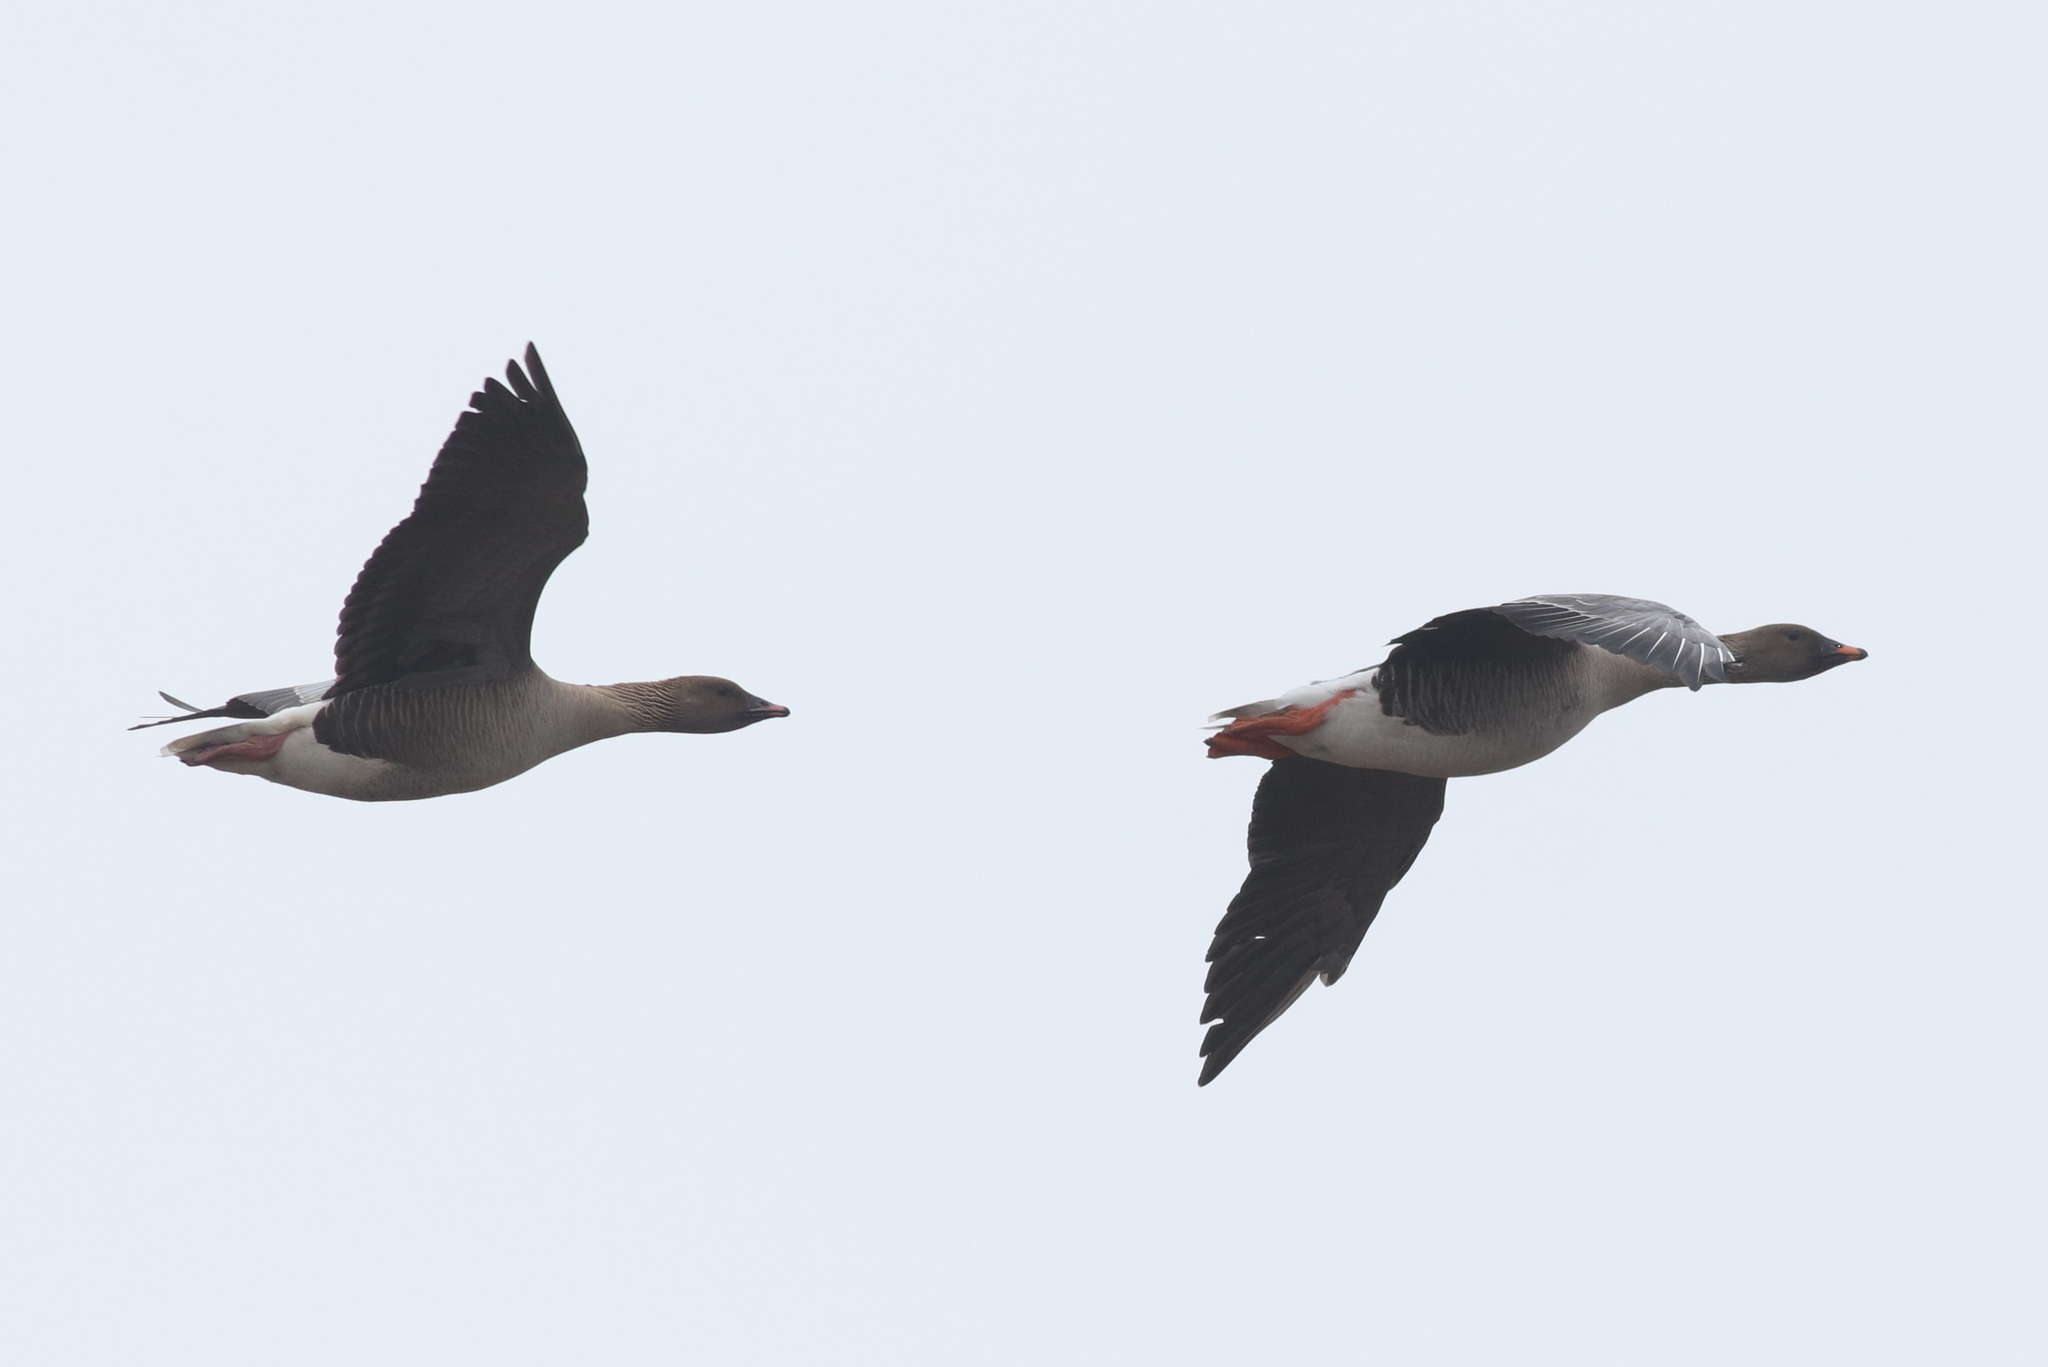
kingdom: Animalia
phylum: Chordata
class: Aves
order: Anseriformes
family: Anatidae
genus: Anser
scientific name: Anser serrirostris
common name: Tundra bean goose
